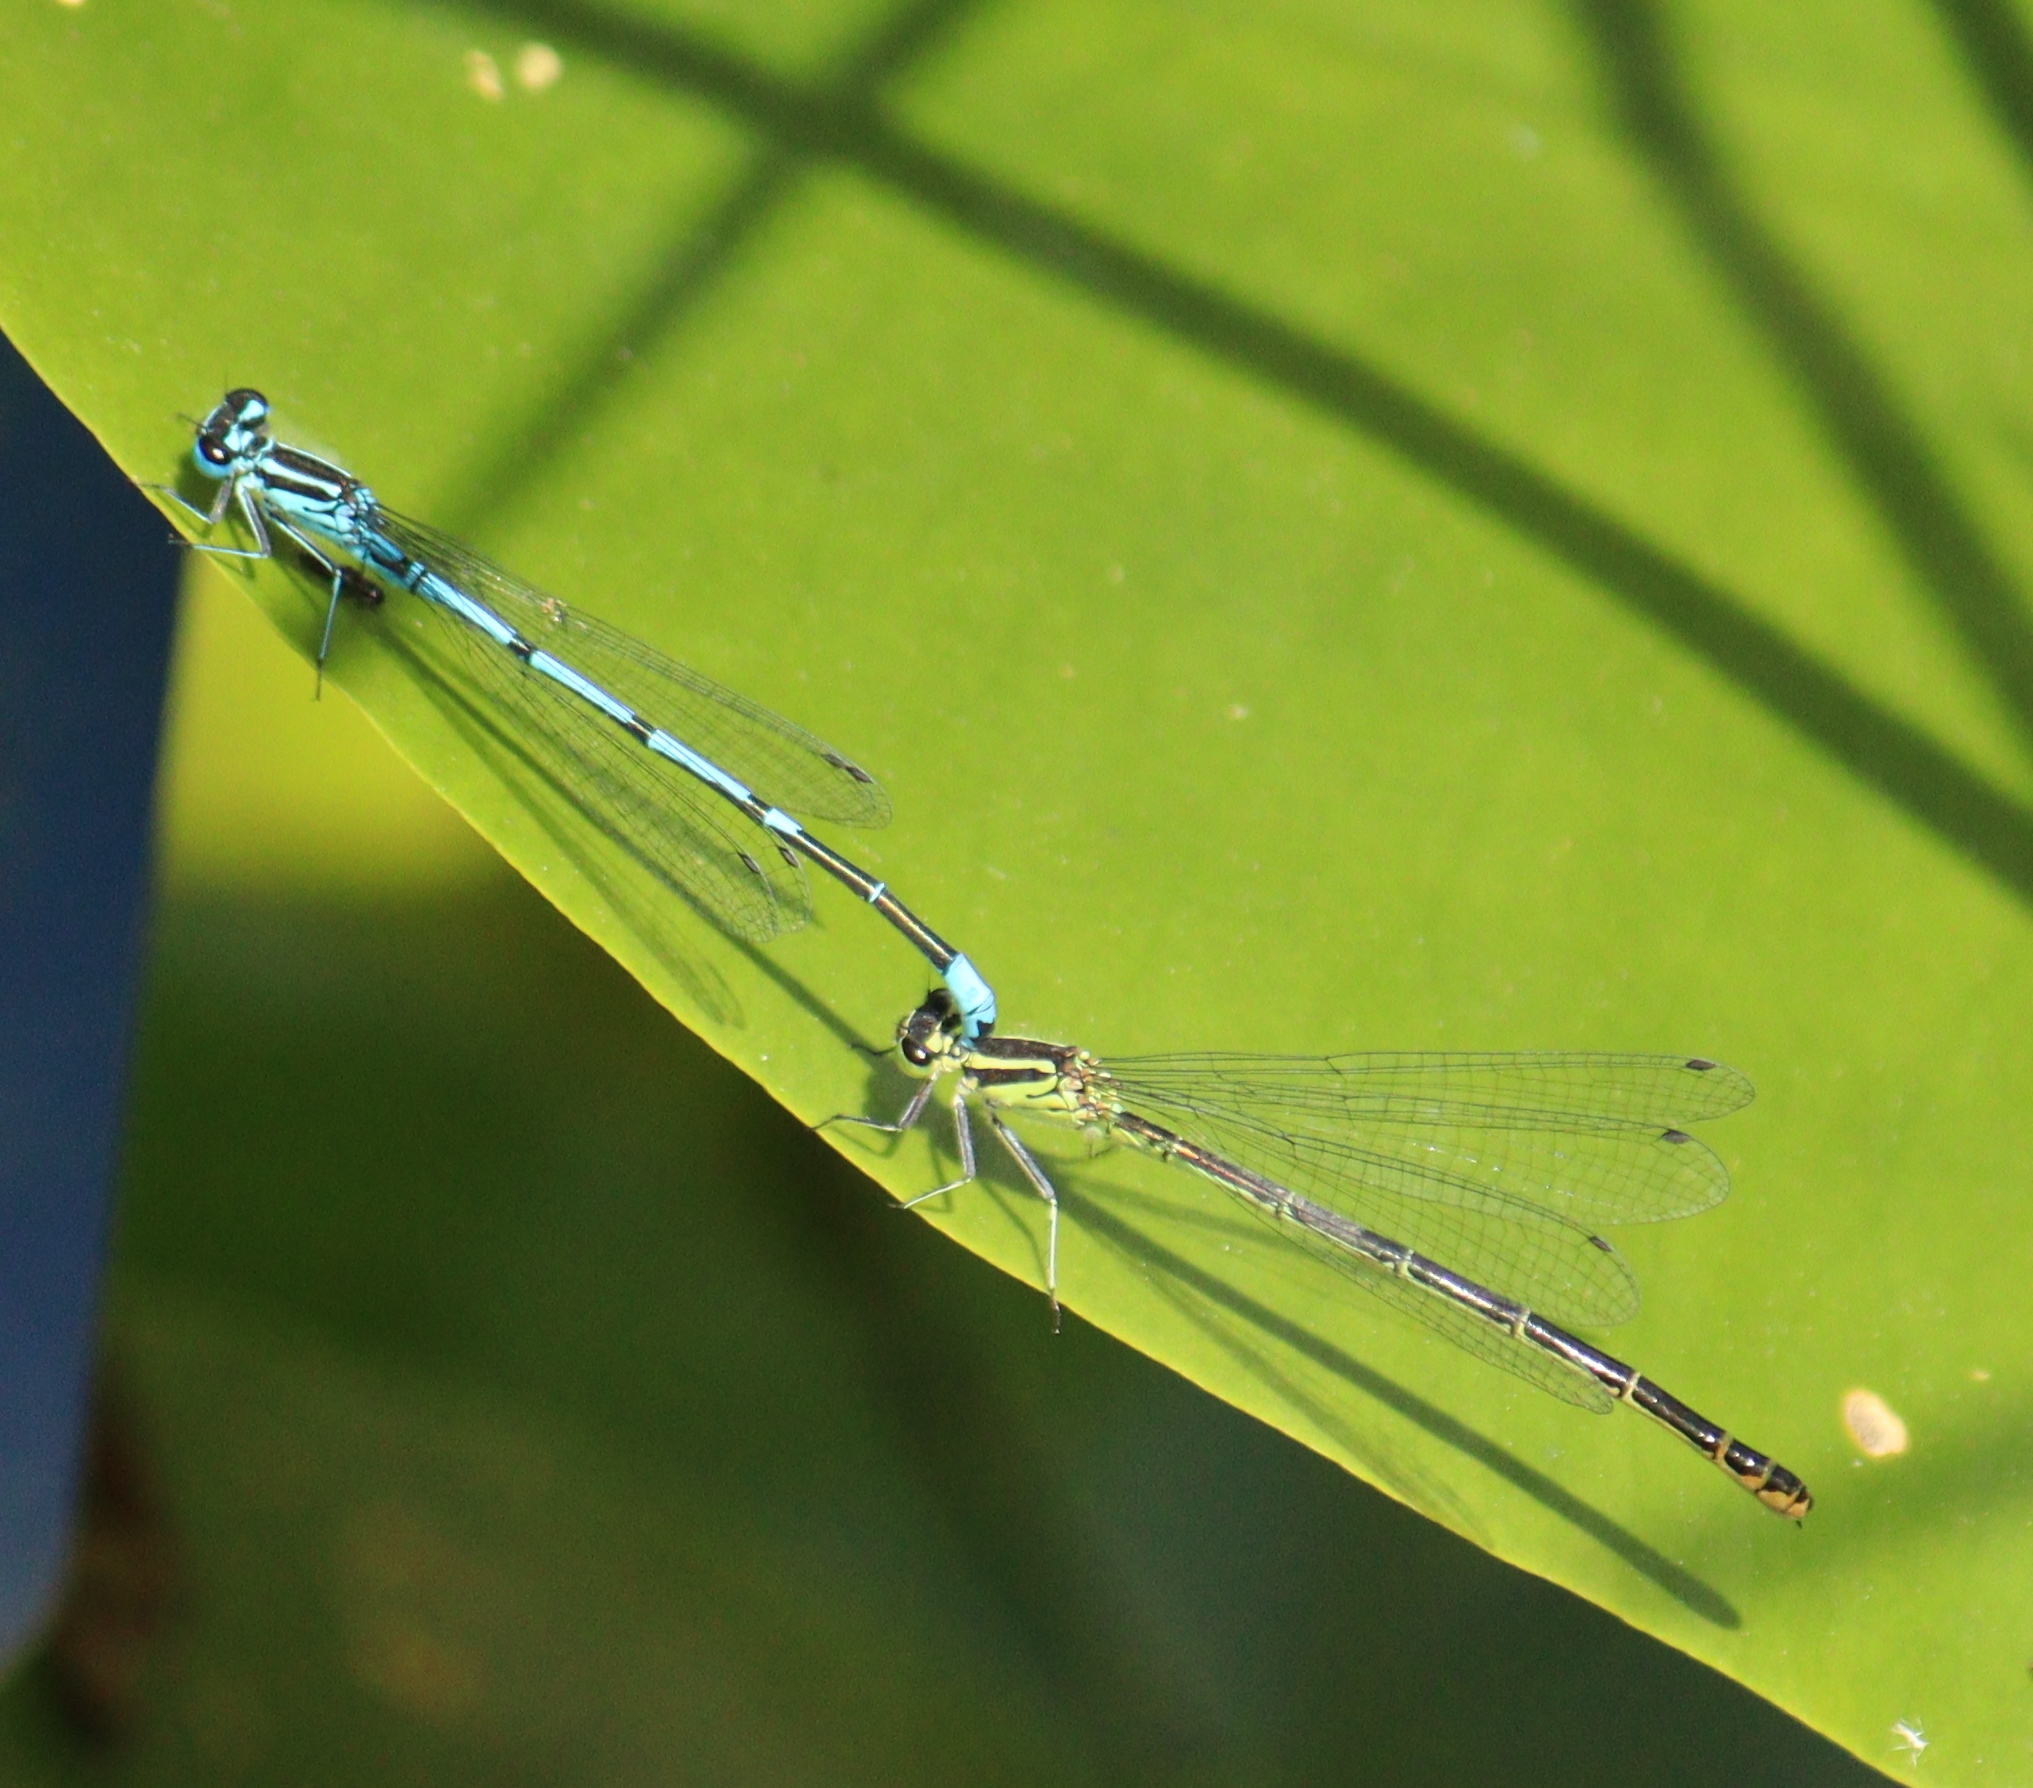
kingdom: Animalia
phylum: Arthropoda
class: Insecta
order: Odonata
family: Coenagrionidae
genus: Coenagrion
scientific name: Coenagrion puella
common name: Azure damselfly
